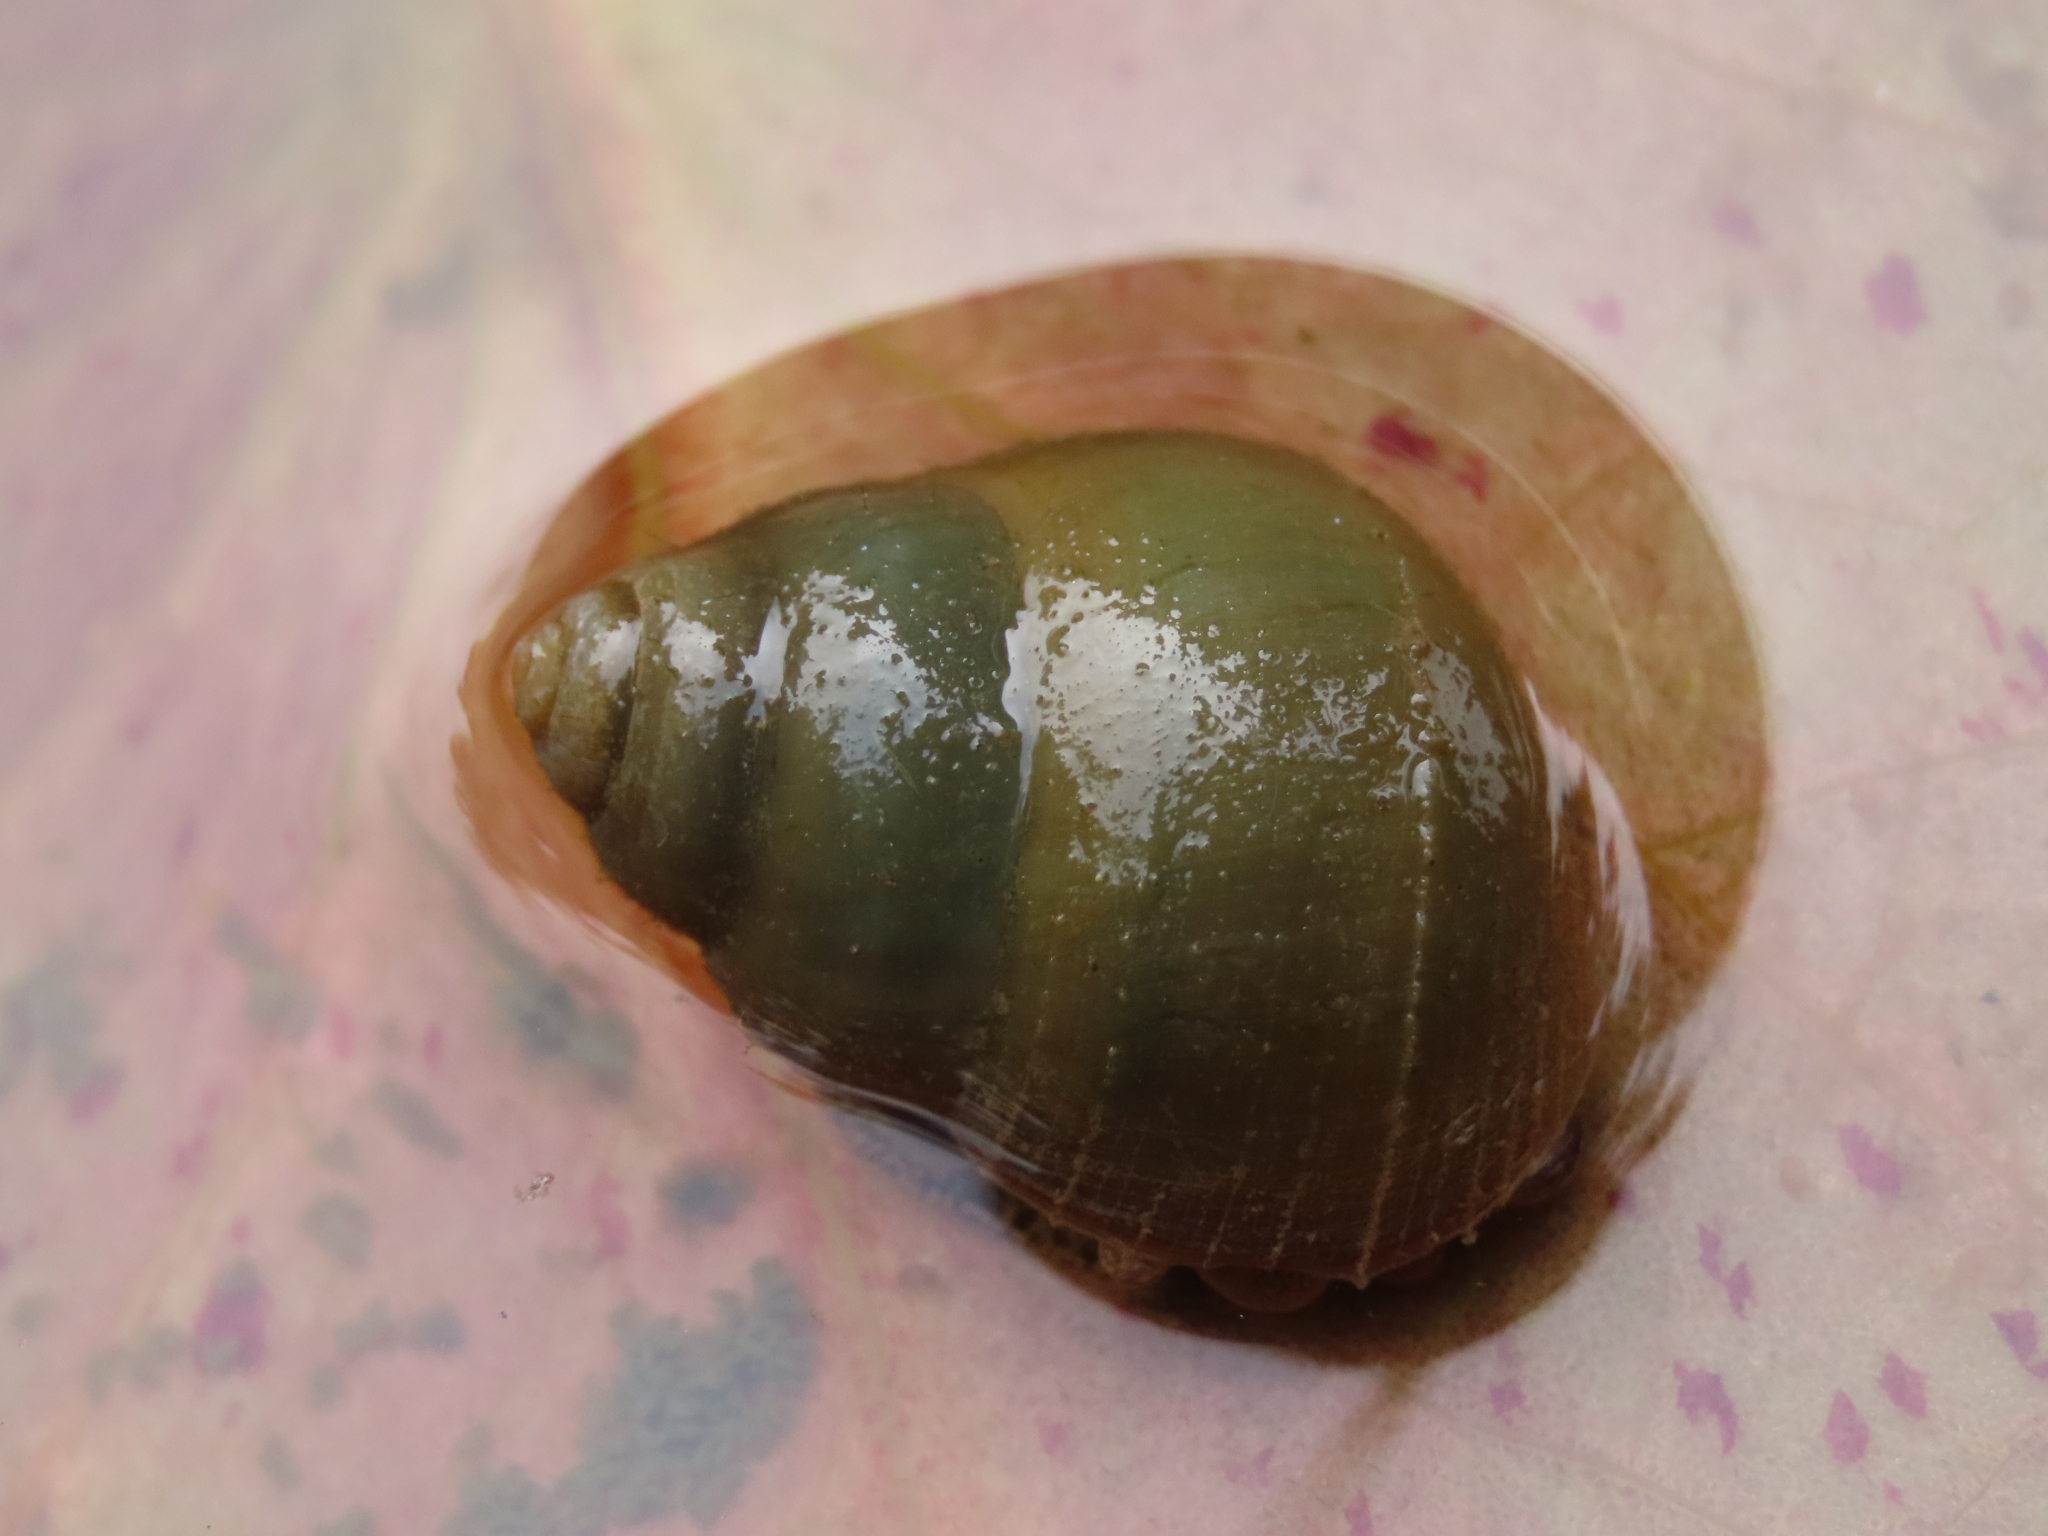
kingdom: Animalia
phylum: Mollusca
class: Gastropoda
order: Architaenioglossa
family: Viviparidae
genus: Sinotaia
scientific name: Sinotaia quadrata
